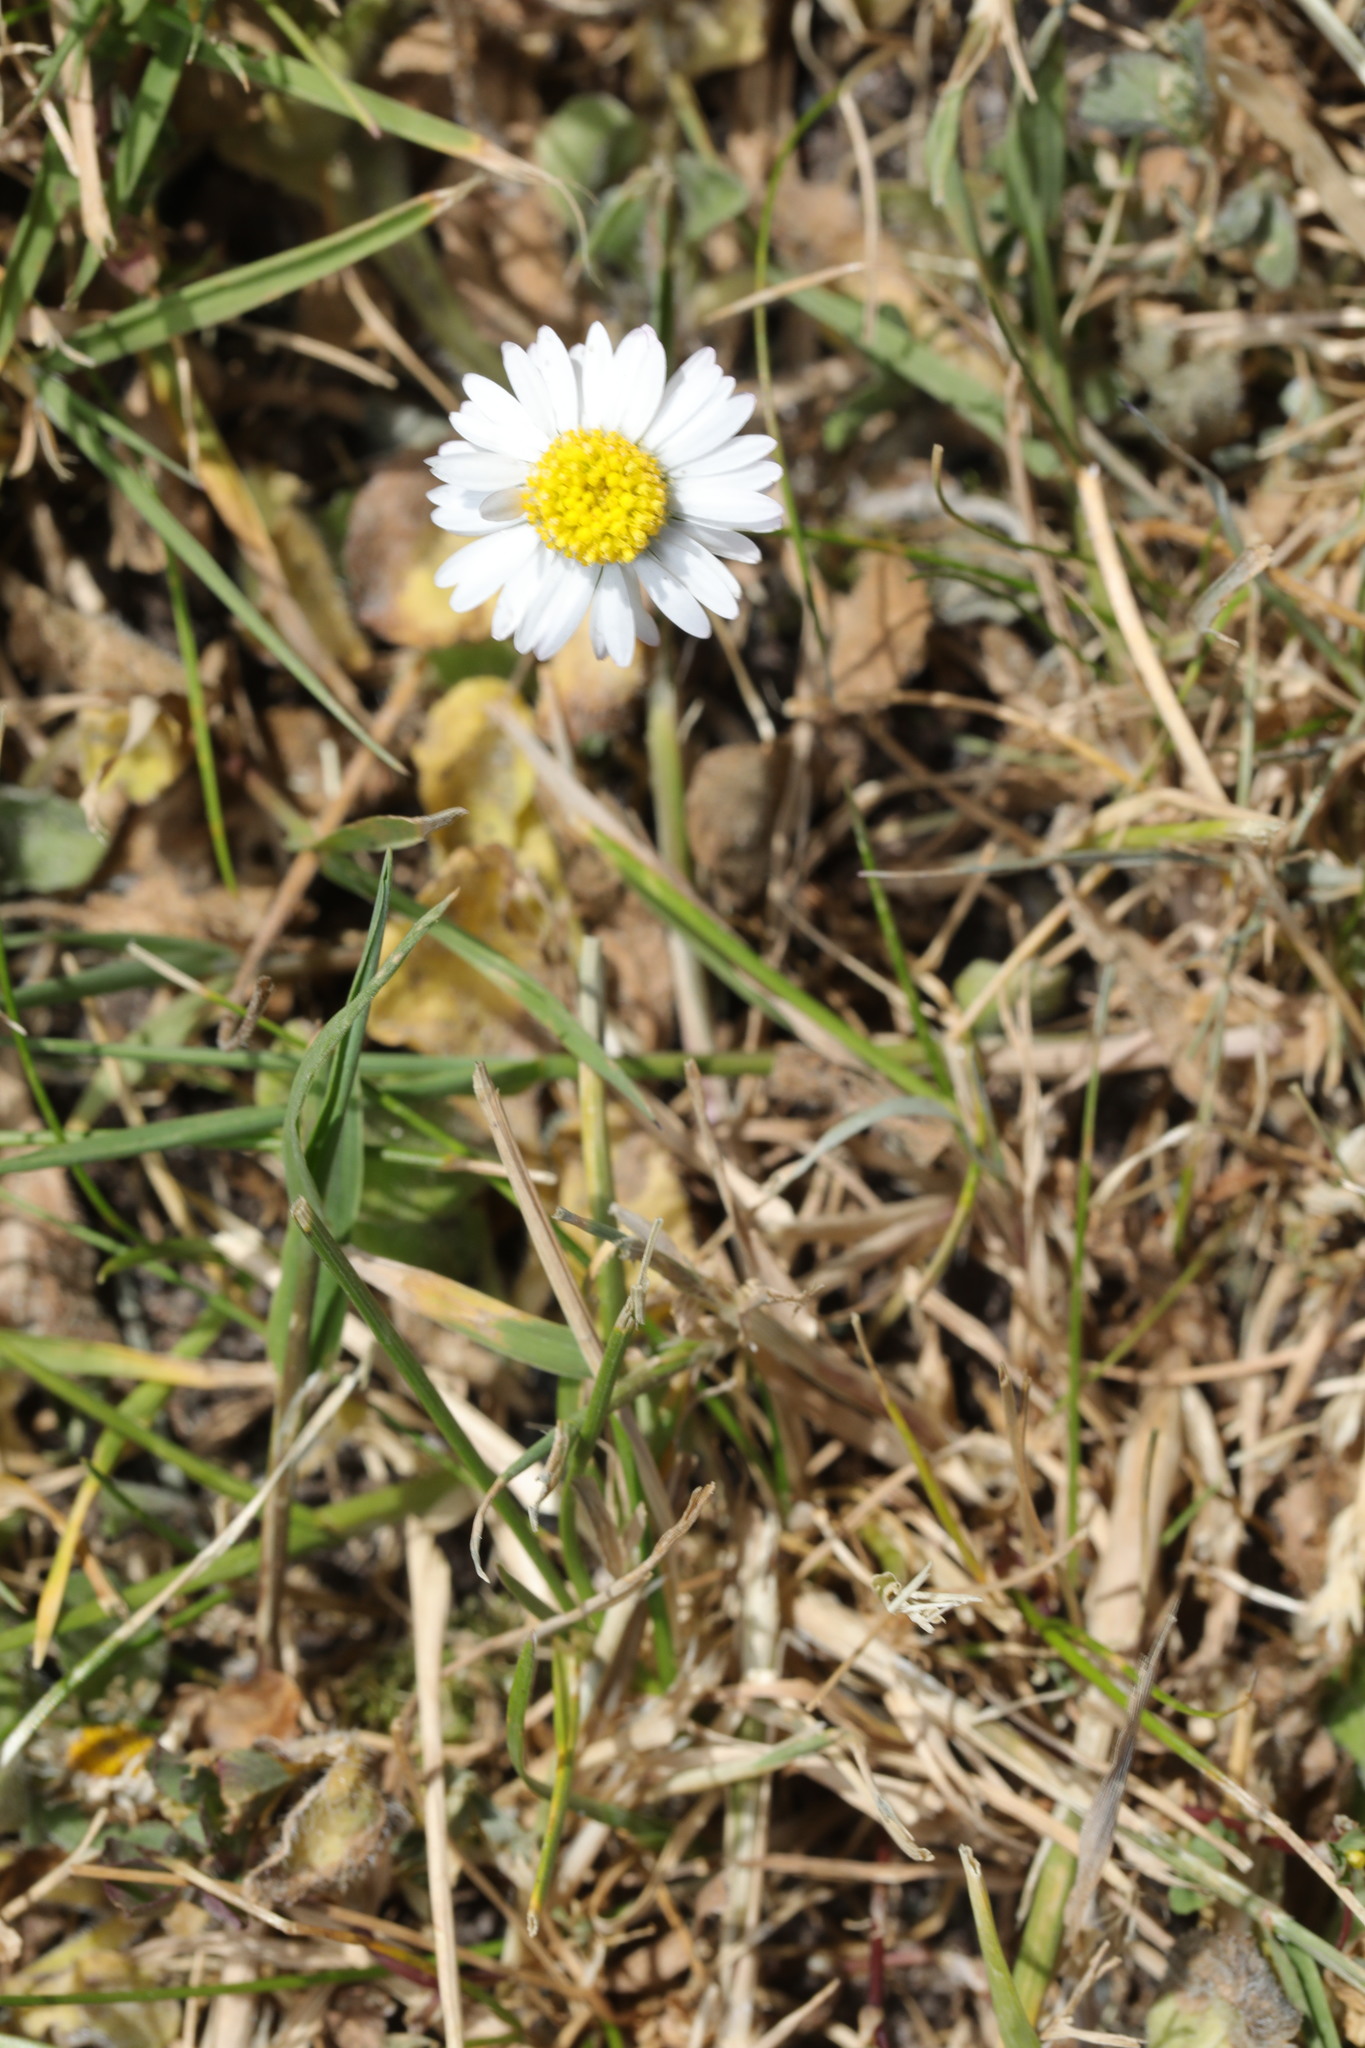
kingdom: Plantae
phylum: Tracheophyta
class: Magnoliopsida
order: Asterales
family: Asteraceae
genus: Bellis
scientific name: Bellis perennis
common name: Lawndaisy
